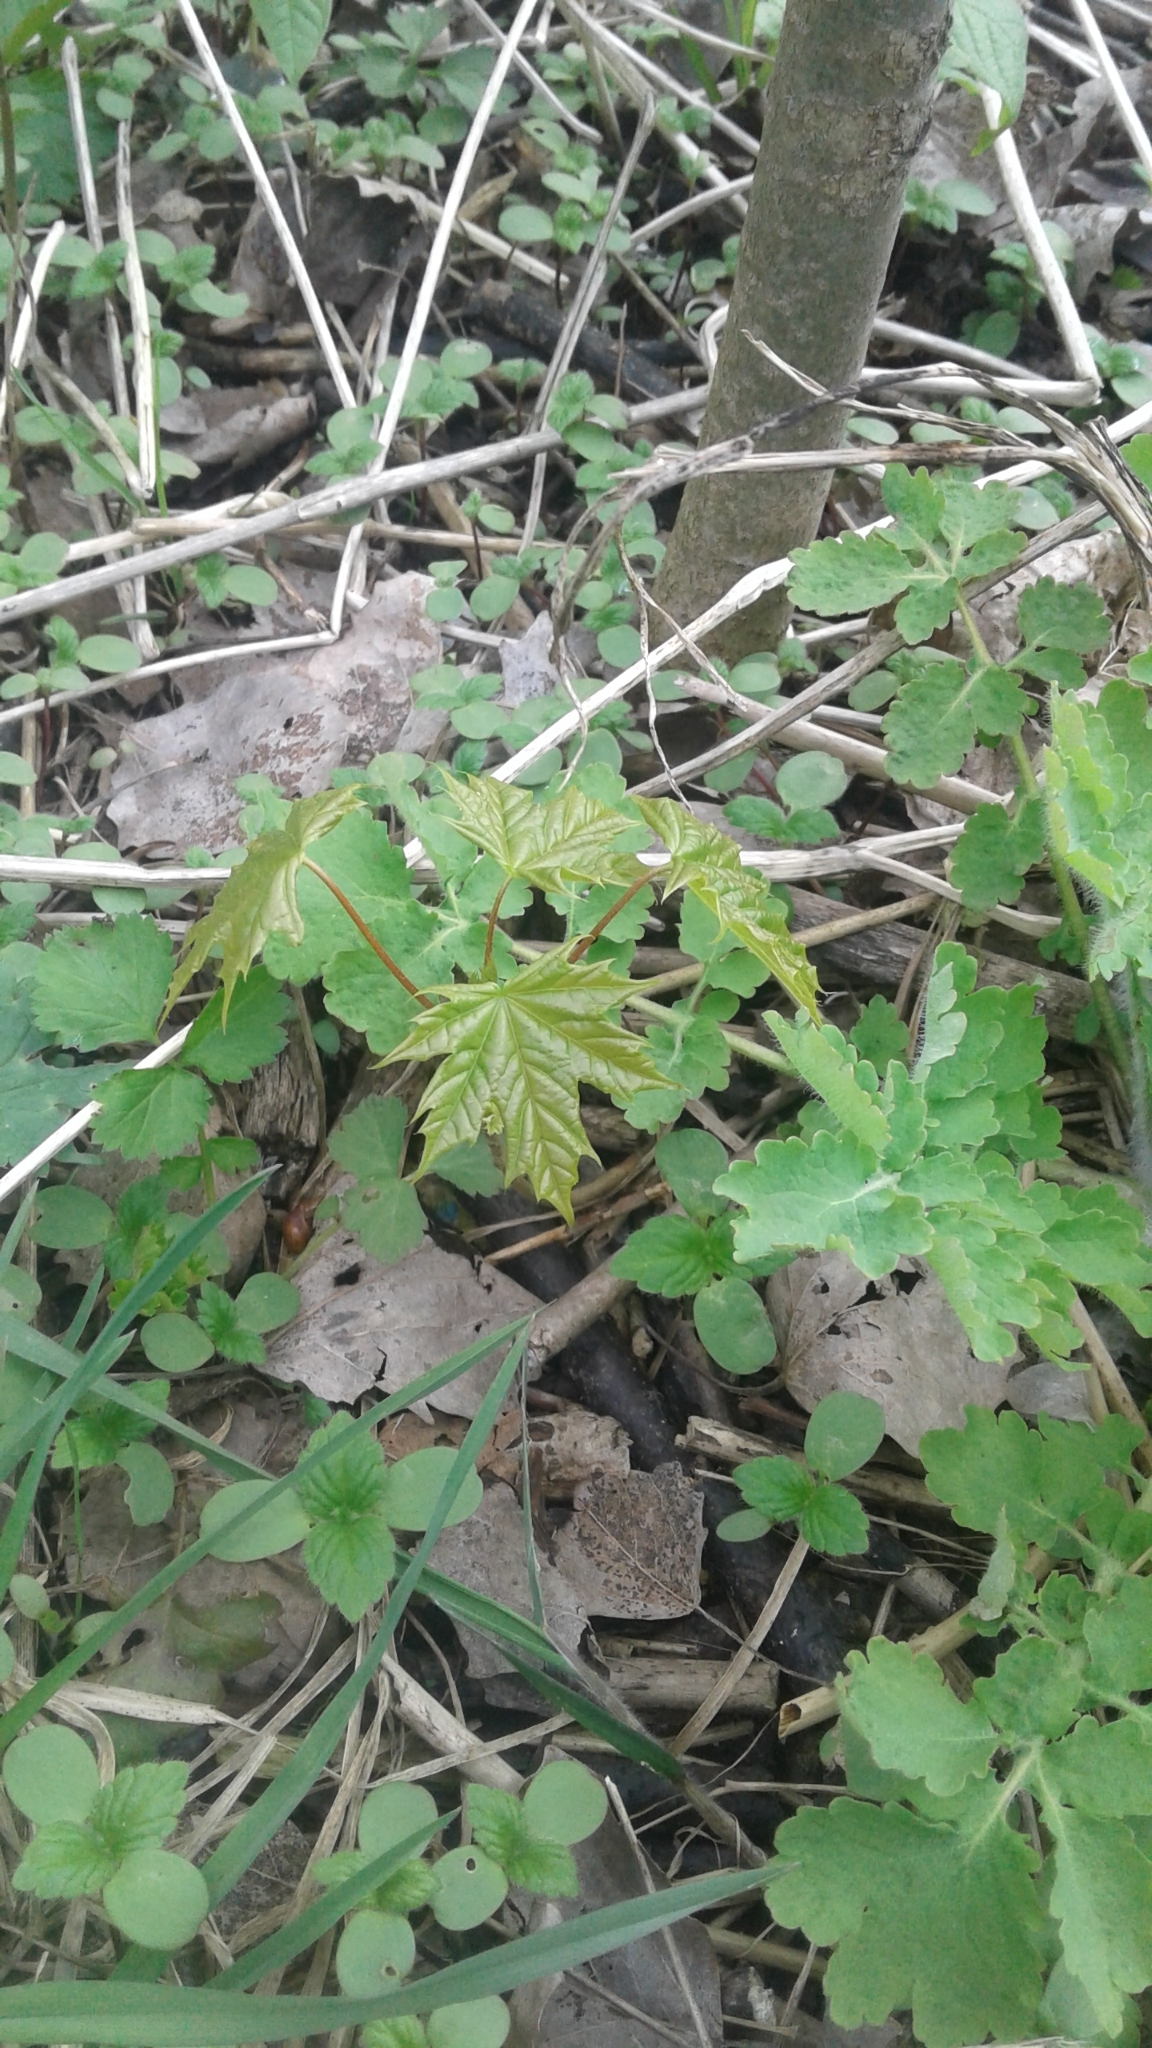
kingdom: Plantae
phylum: Tracheophyta
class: Magnoliopsida
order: Sapindales
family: Sapindaceae
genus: Acer
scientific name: Acer platanoides
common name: Norway maple
